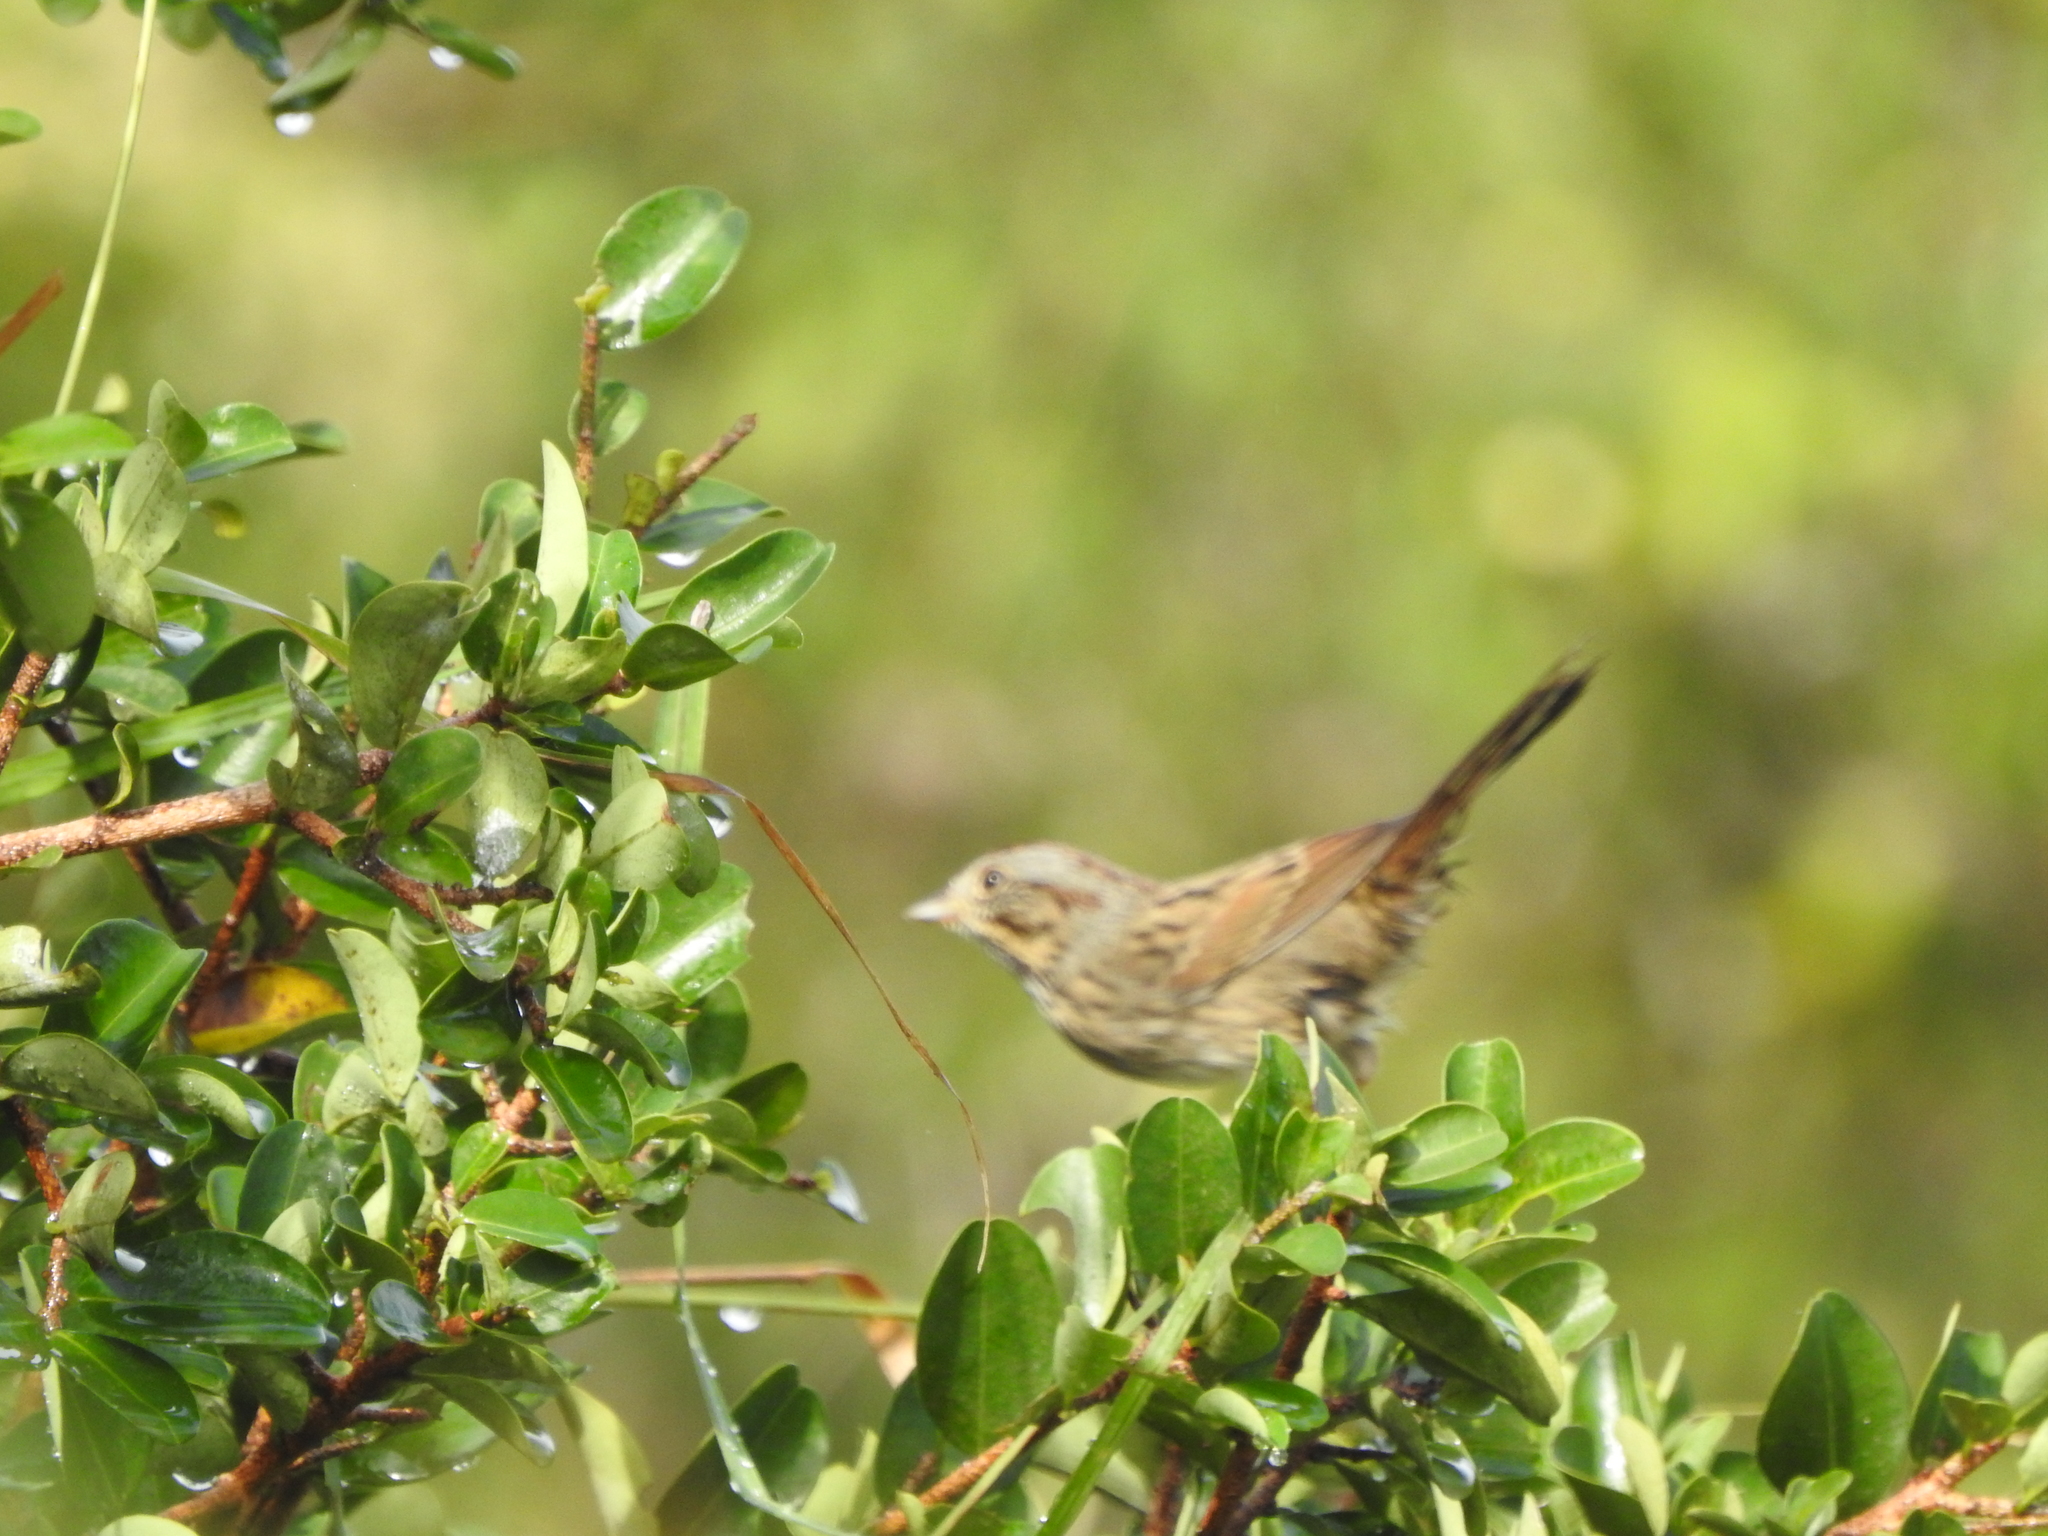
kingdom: Animalia
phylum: Chordata
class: Aves
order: Passeriformes
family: Passerellidae
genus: Melospiza
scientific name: Melospiza lincolnii
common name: Lincoln's sparrow
